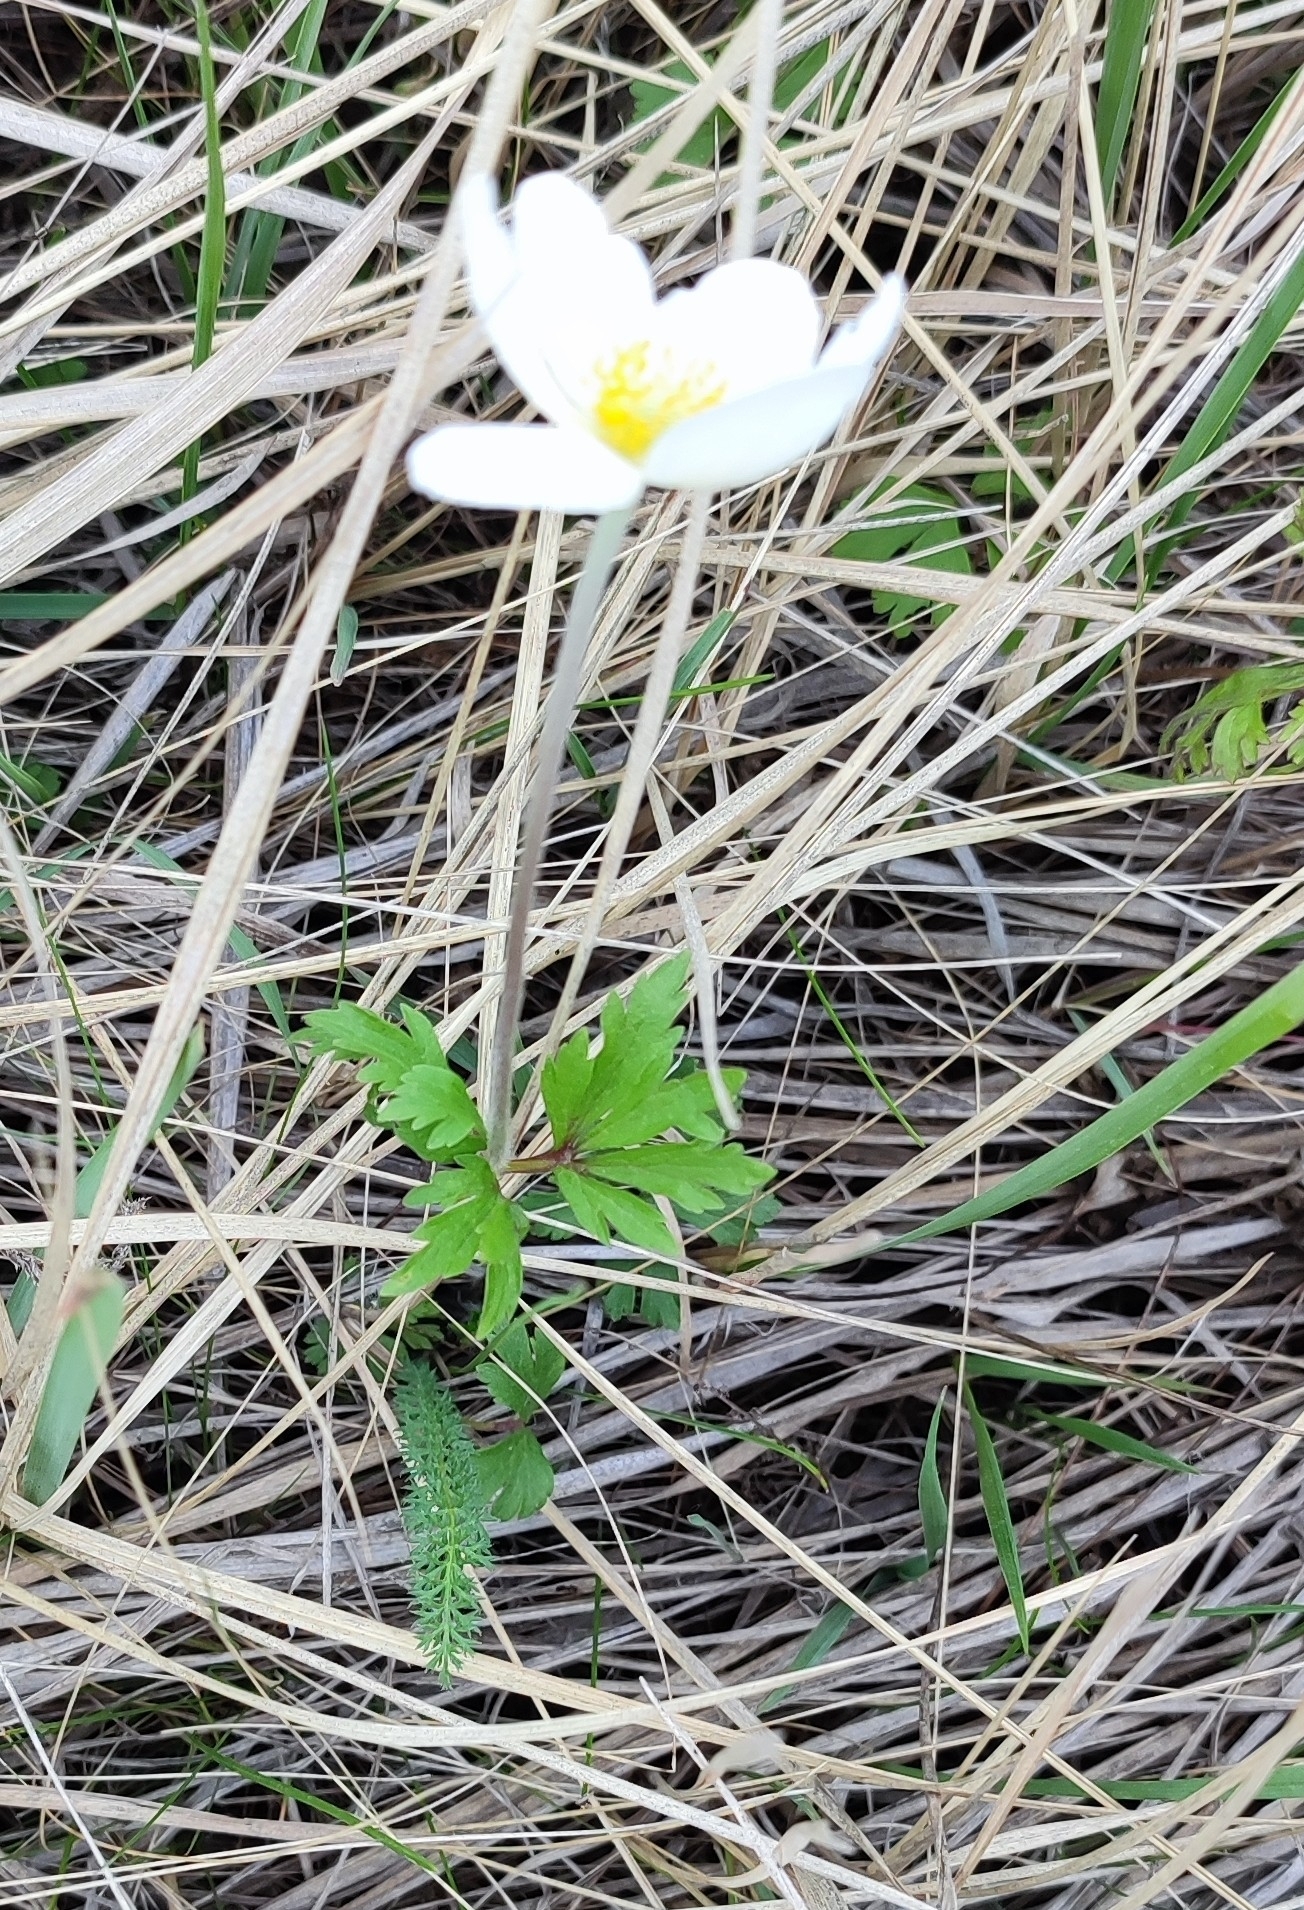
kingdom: Plantae
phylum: Tracheophyta
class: Magnoliopsida
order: Ranunculales
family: Ranunculaceae
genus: Anemone
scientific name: Anemone sylvestris
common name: Snowdrop anemone
